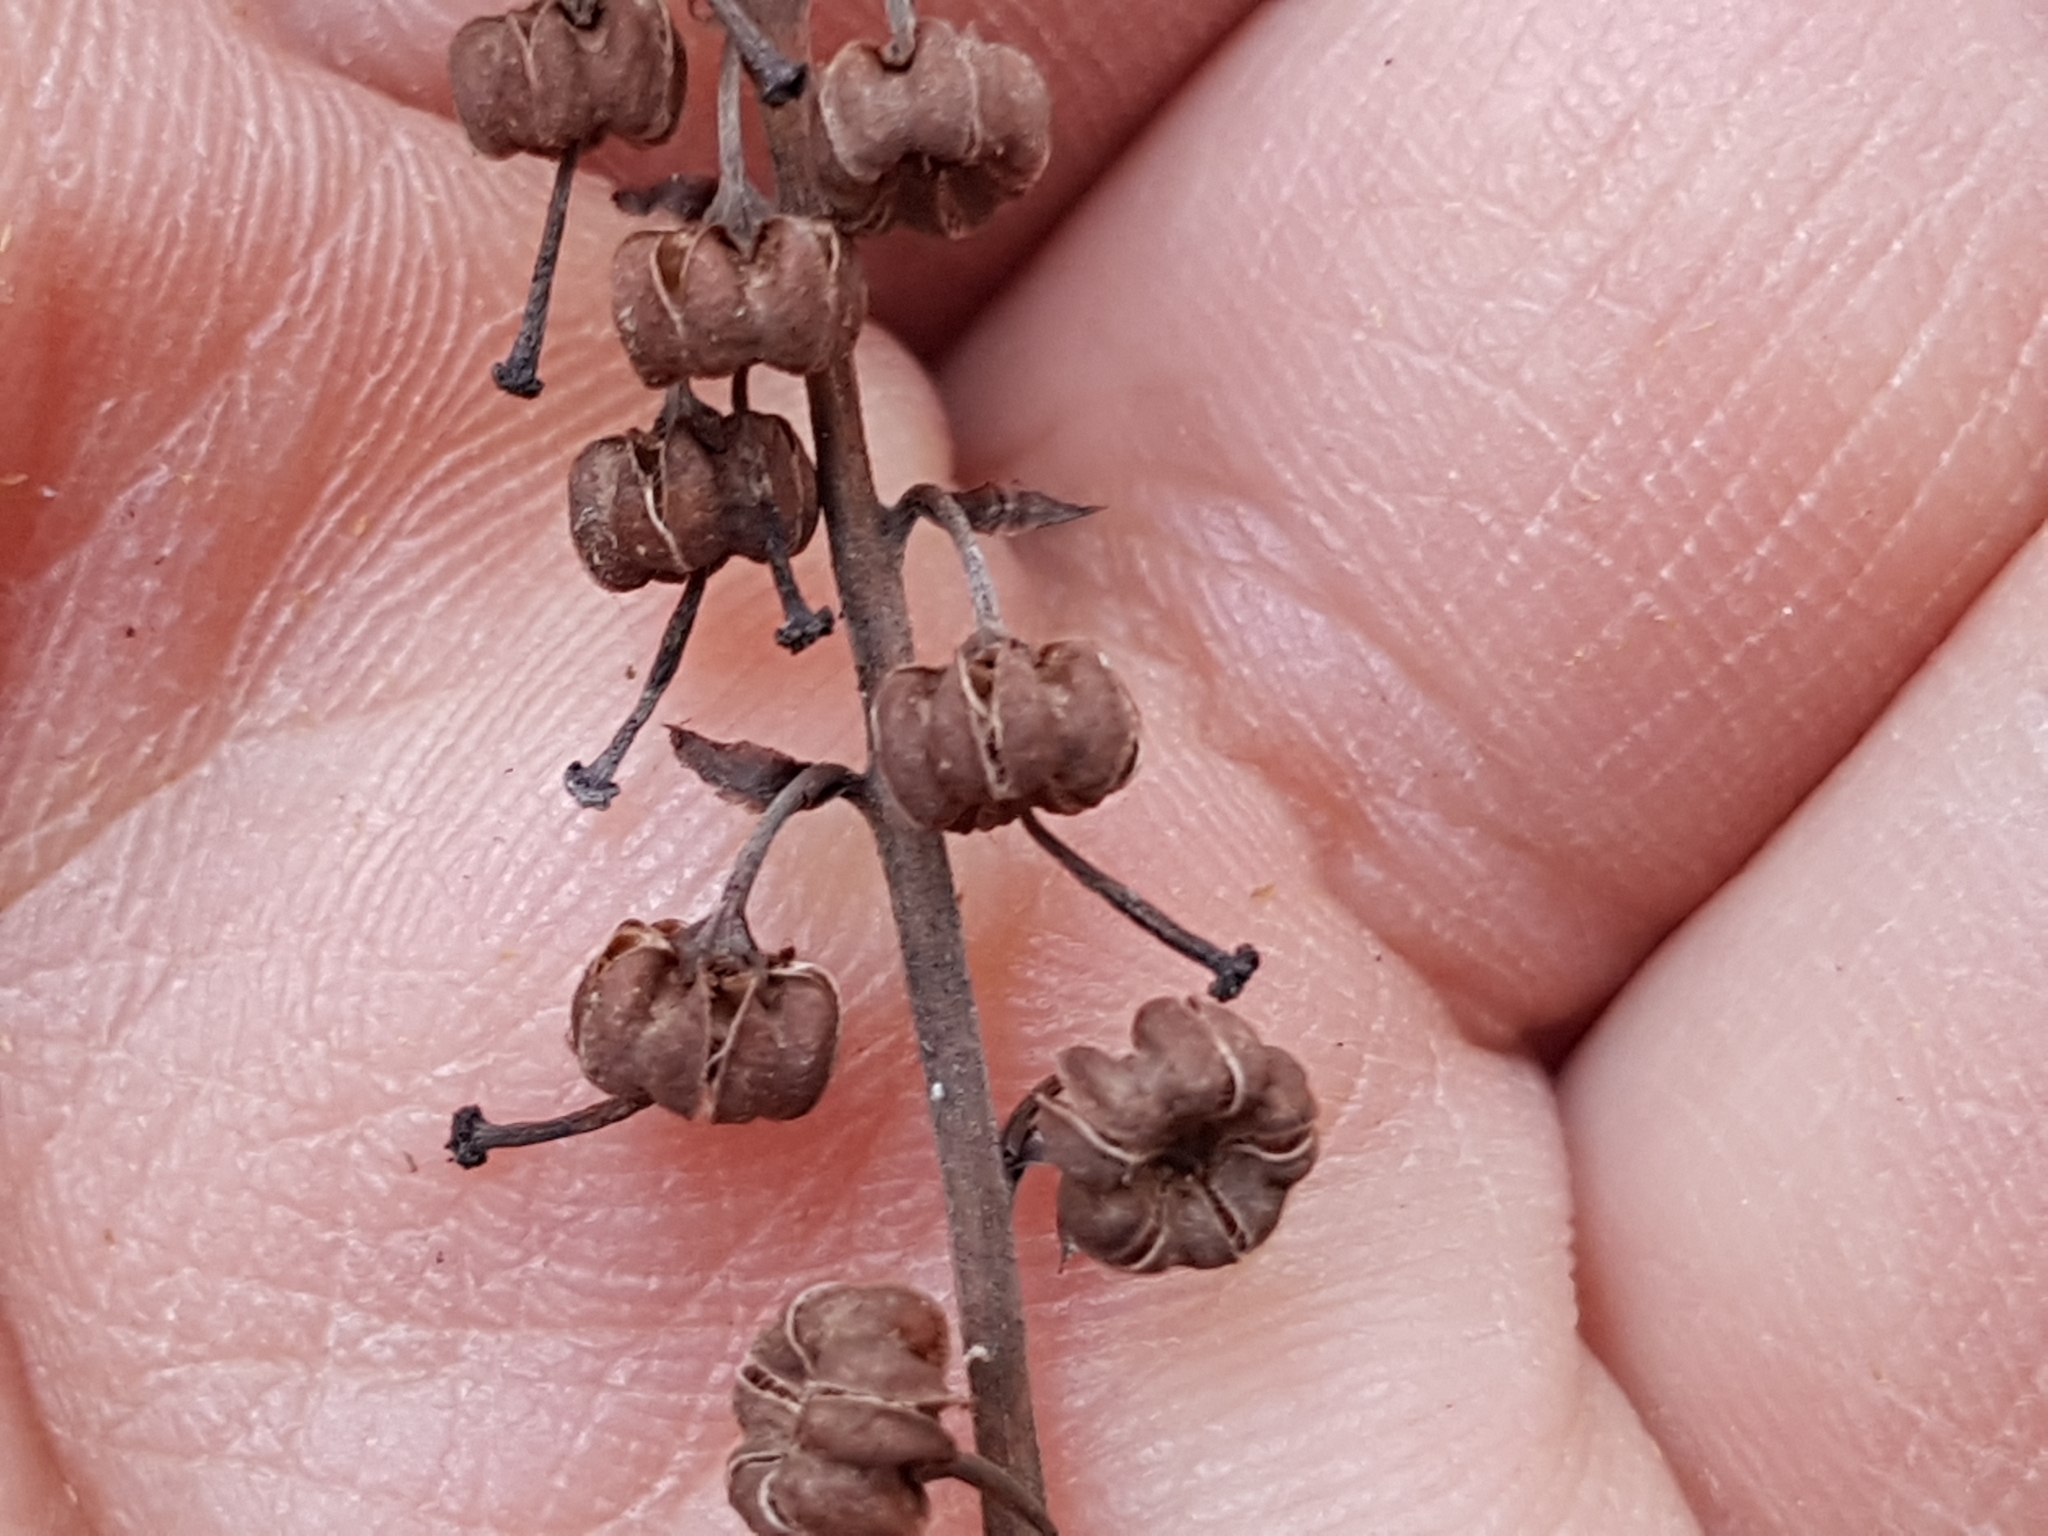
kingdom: Plantae
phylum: Tracheophyta
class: Magnoliopsida
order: Ericales
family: Ericaceae
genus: Orthilia
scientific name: Orthilia secunda
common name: One-sided orthilia
